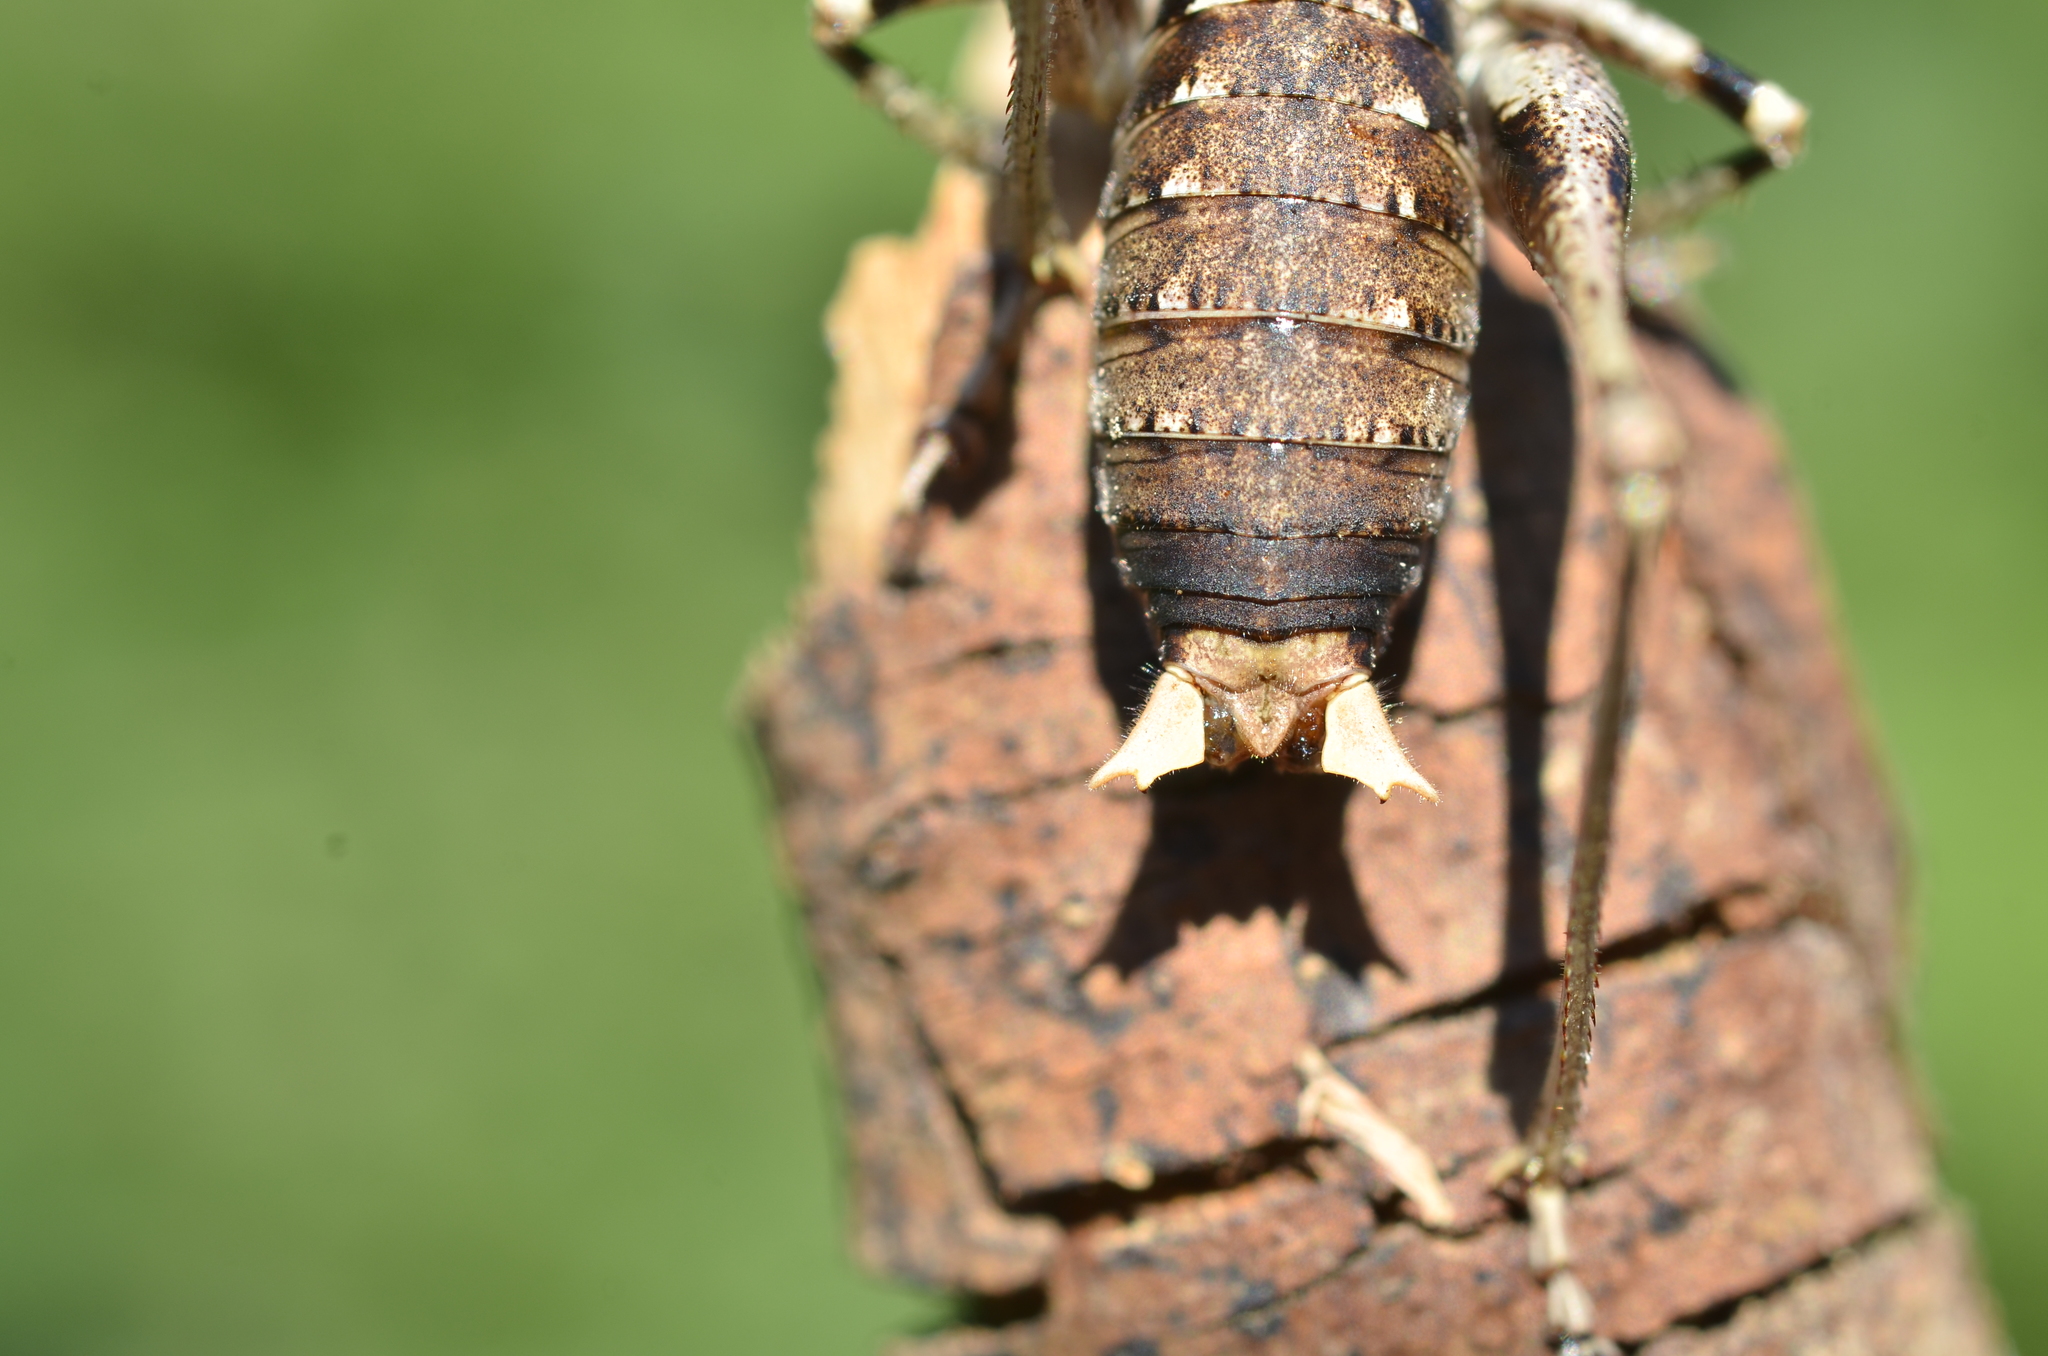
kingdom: Animalia
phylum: Arthropoda
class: Insecta
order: Orthoptera
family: Tettigoniidae
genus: Antaxius
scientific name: Antaxius pedestris
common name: Common mountain bush-cricket
